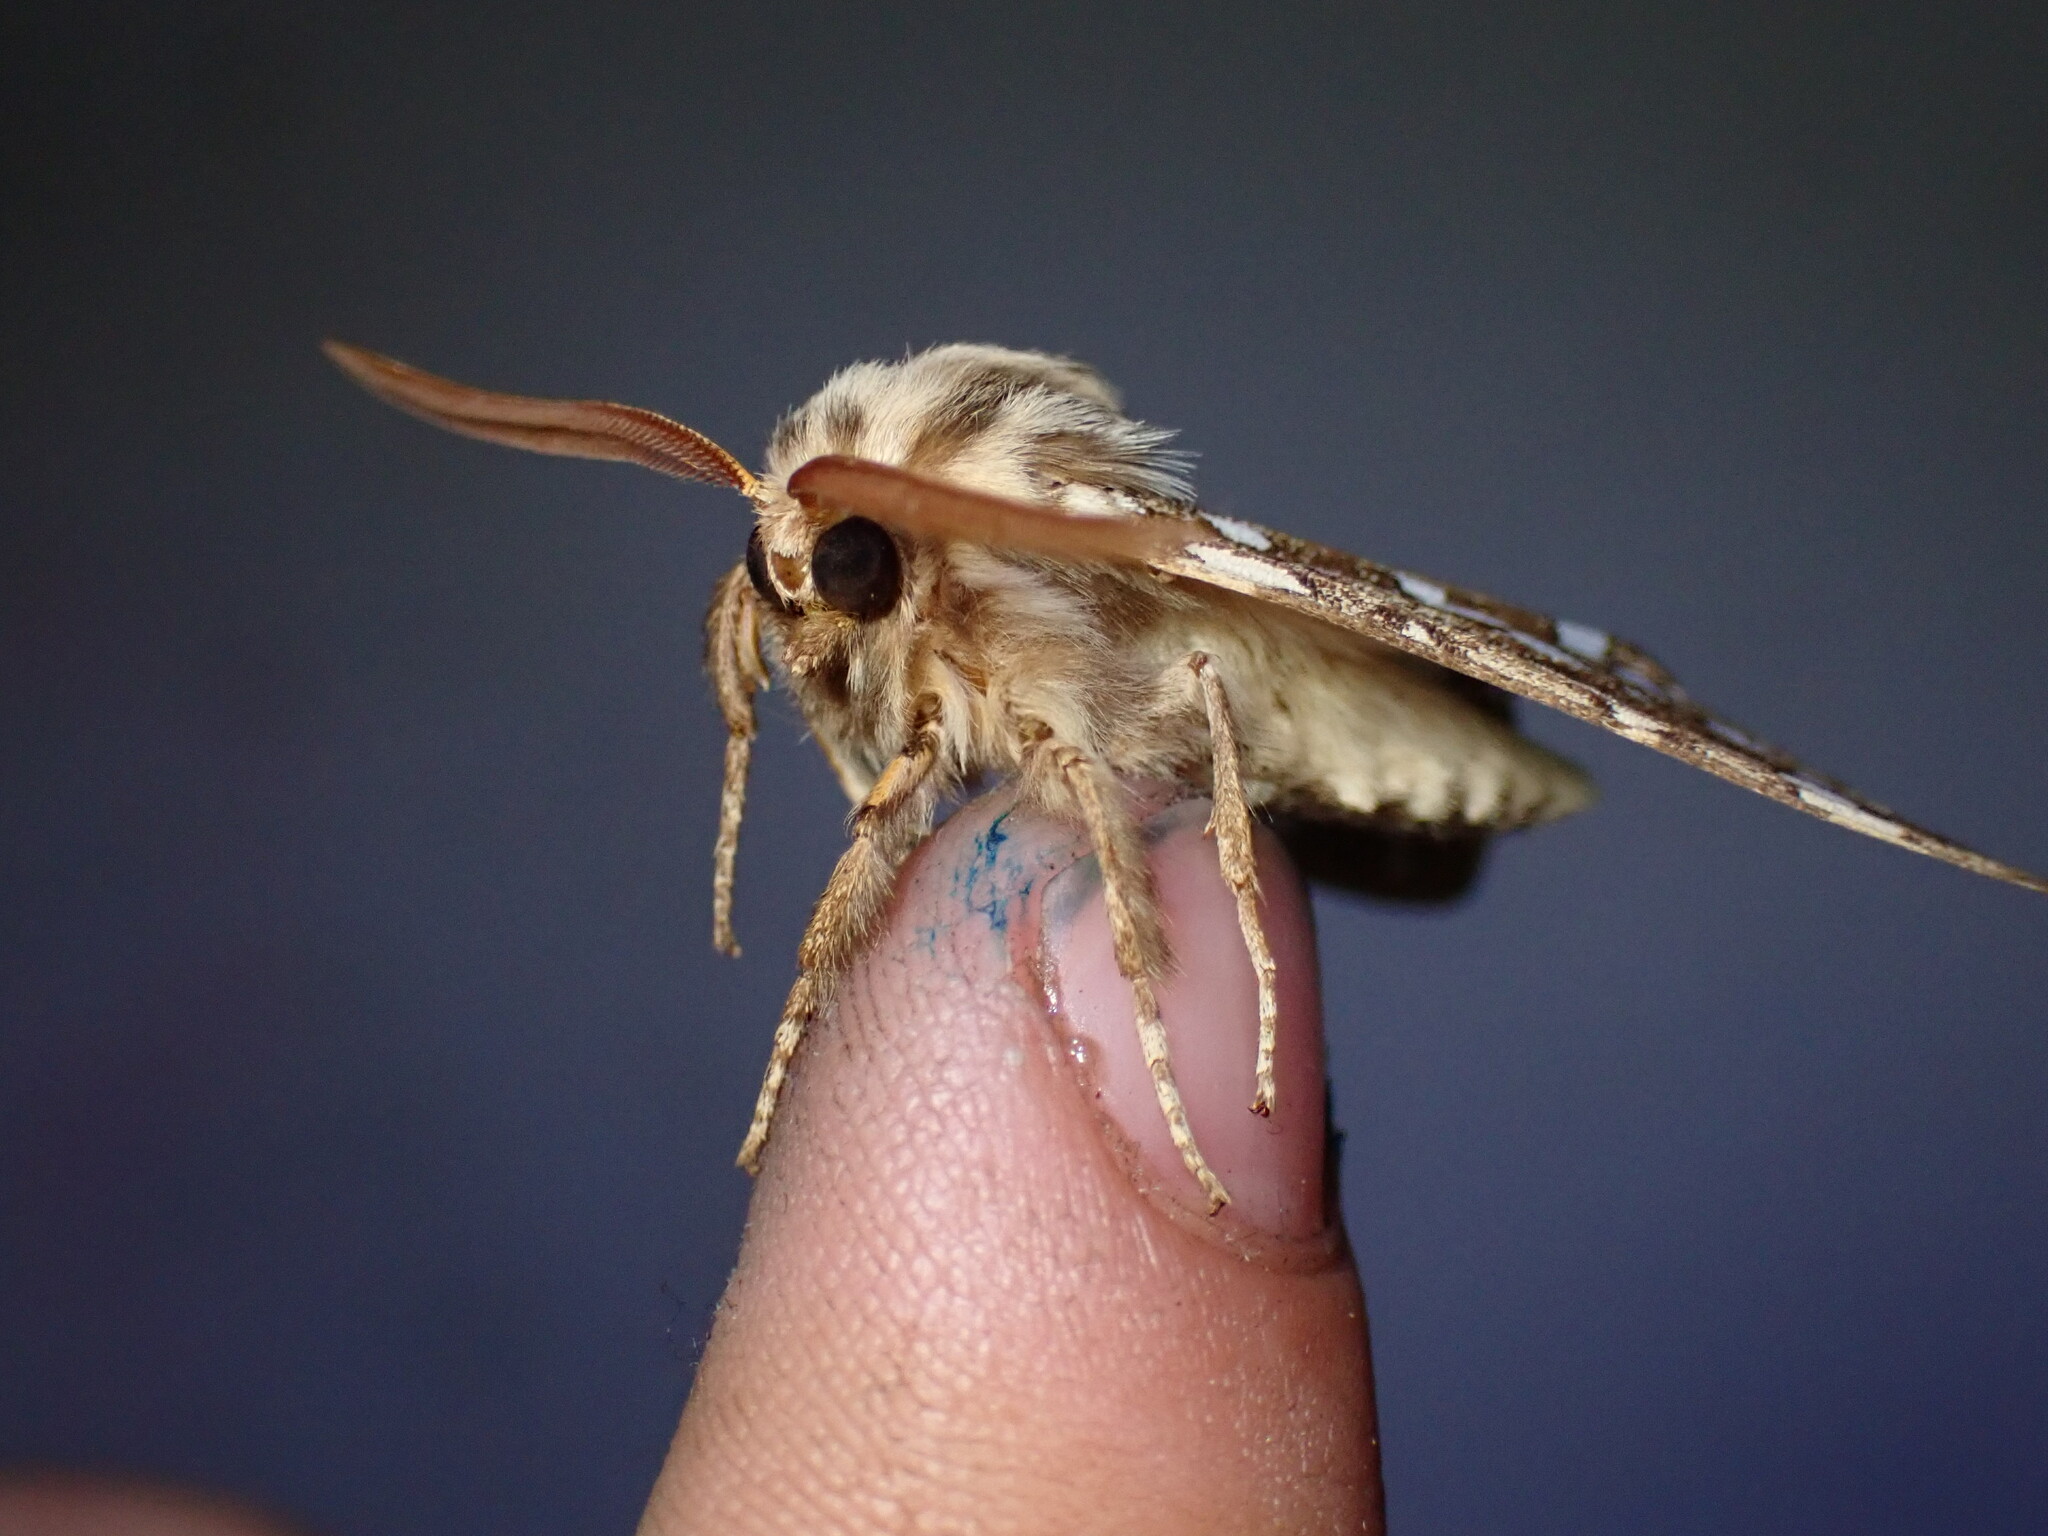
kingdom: Animalia
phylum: Arthropoda
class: Insecta
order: Lepidoptera
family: Erebidae
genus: Lophocampa
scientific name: Lophocampa argentata
